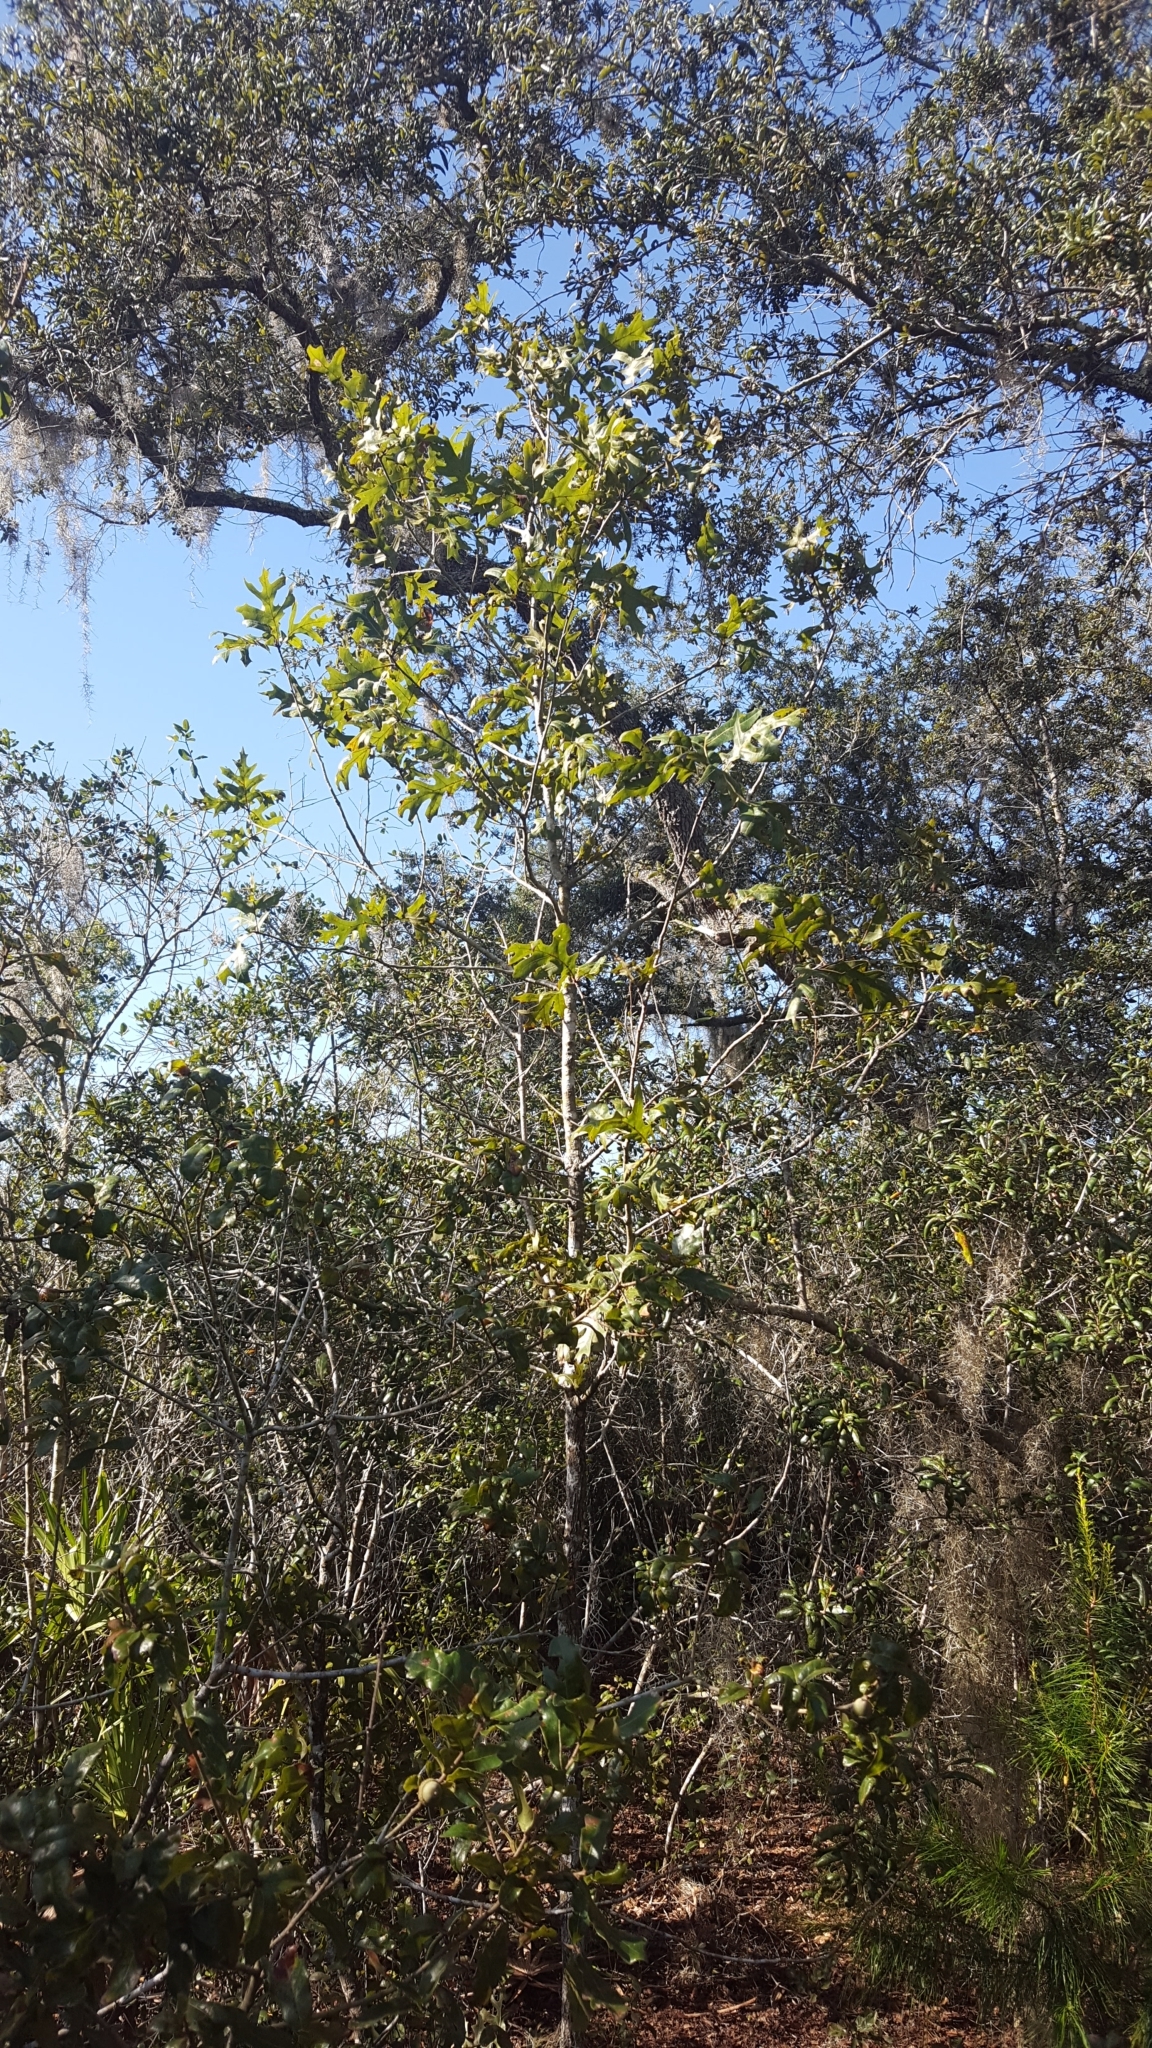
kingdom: Plantae
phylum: Tracheophyta
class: Magnoliopsida
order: Fagales
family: Fagaceae
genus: Quercus
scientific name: Quercus laevis
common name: Turkey oak
